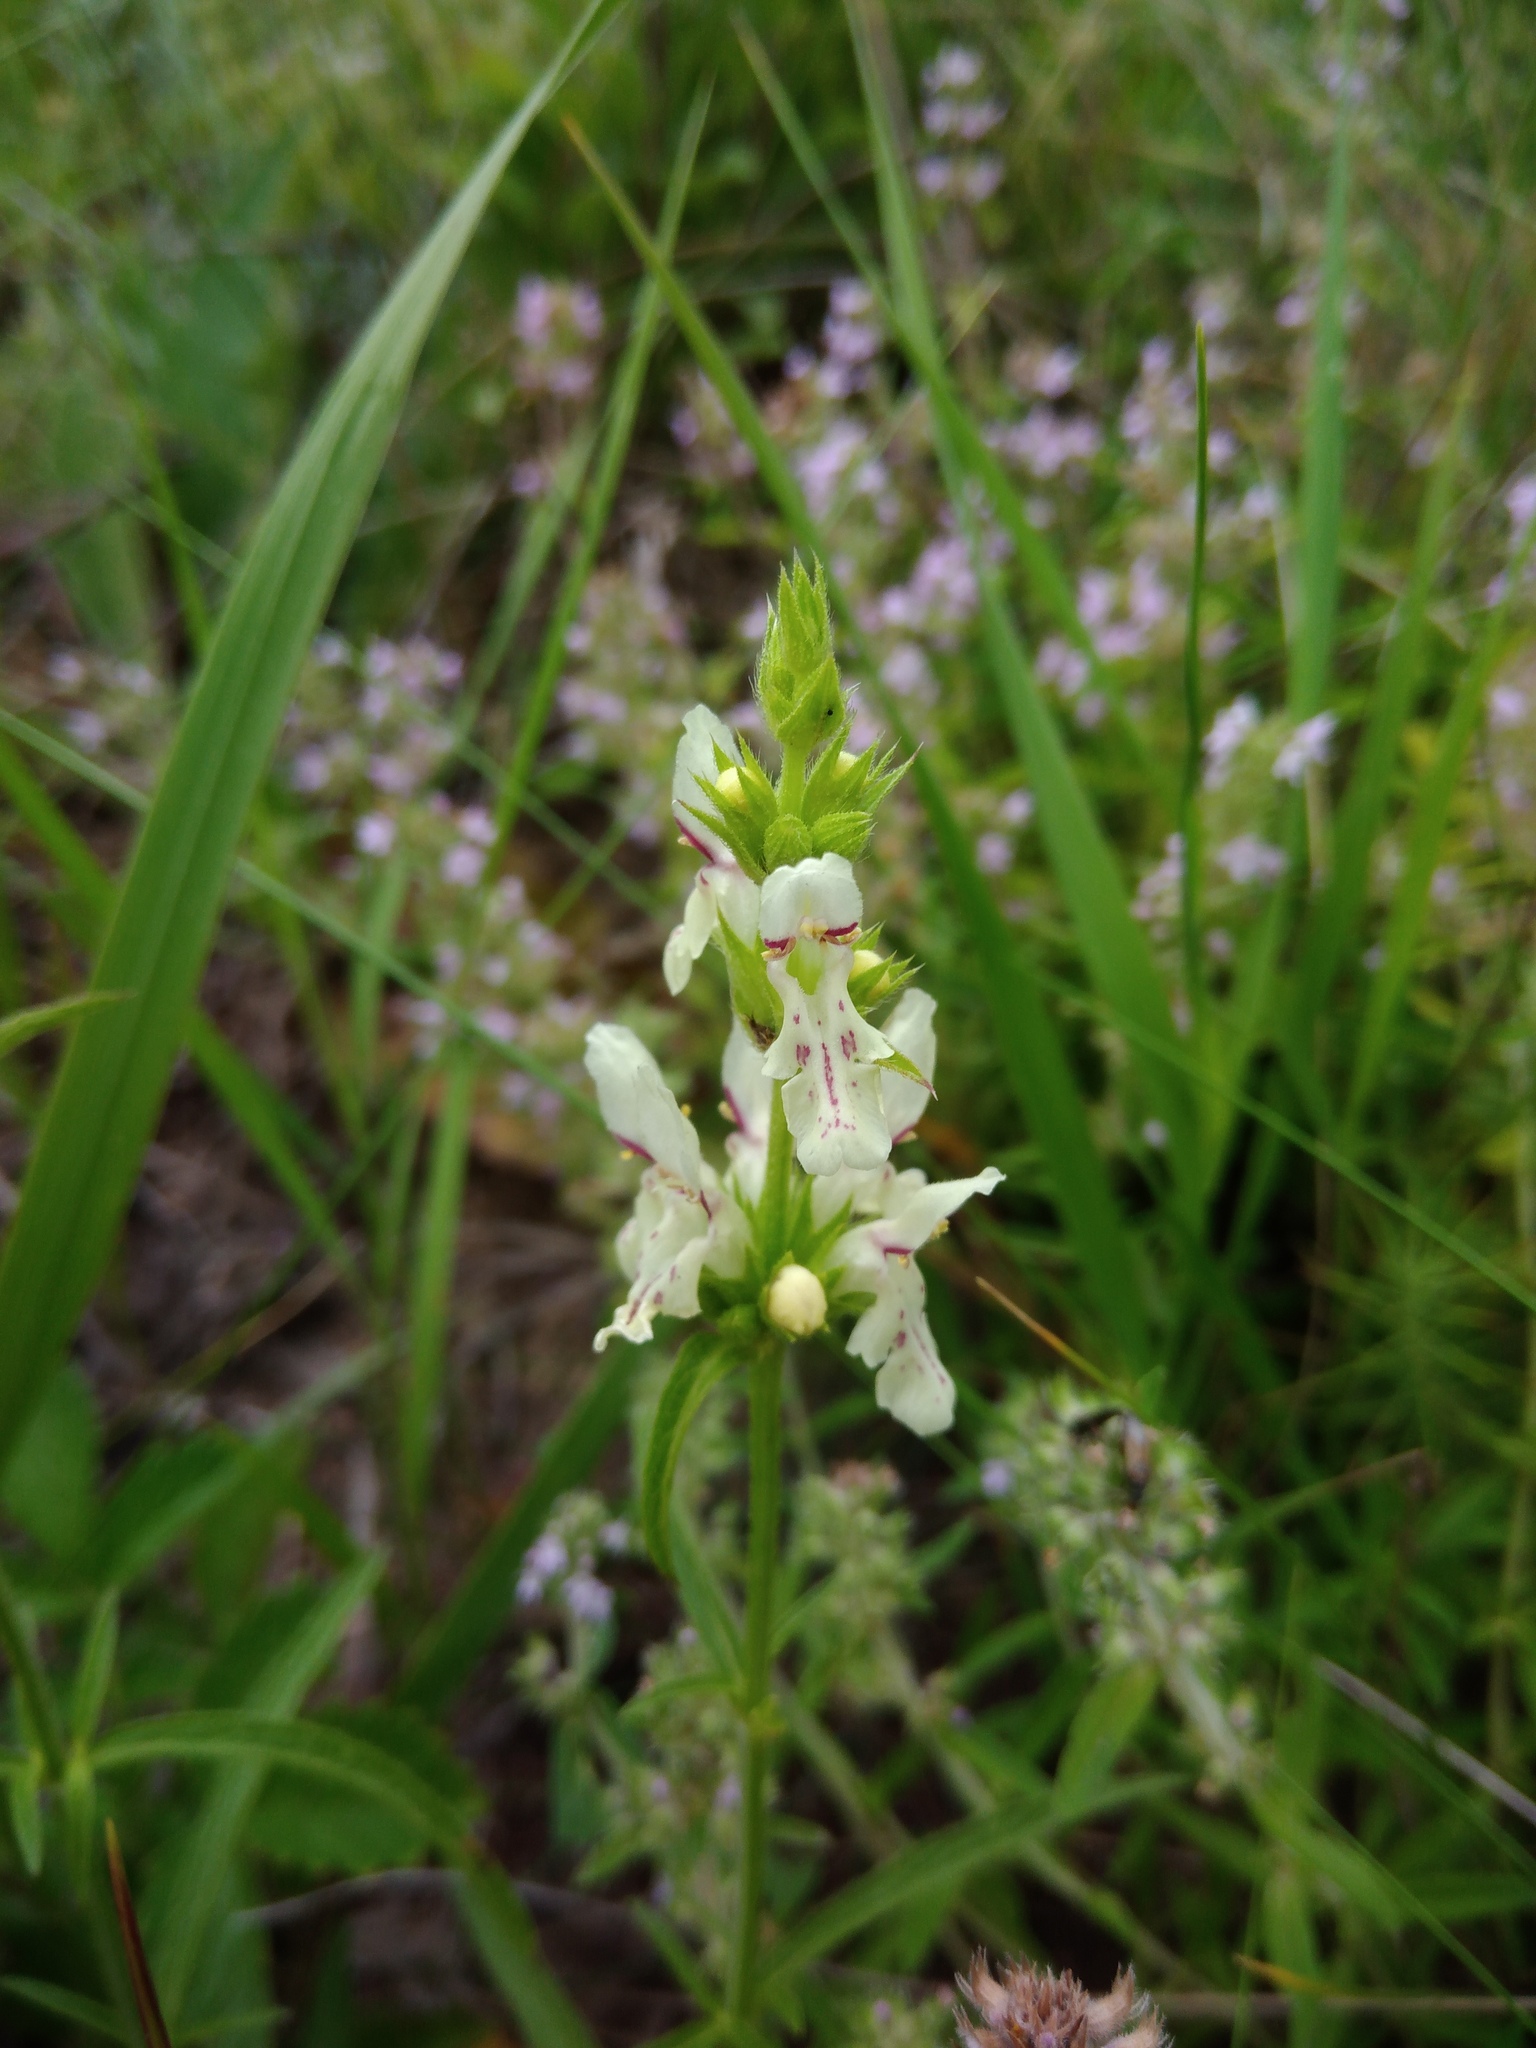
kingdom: Plantae
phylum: Tracheophyta
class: Magnoliopsida
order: Lamiales
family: Lamiaceae
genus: Stachys
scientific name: Stachys recta
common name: Perennial yellow-woundwort
